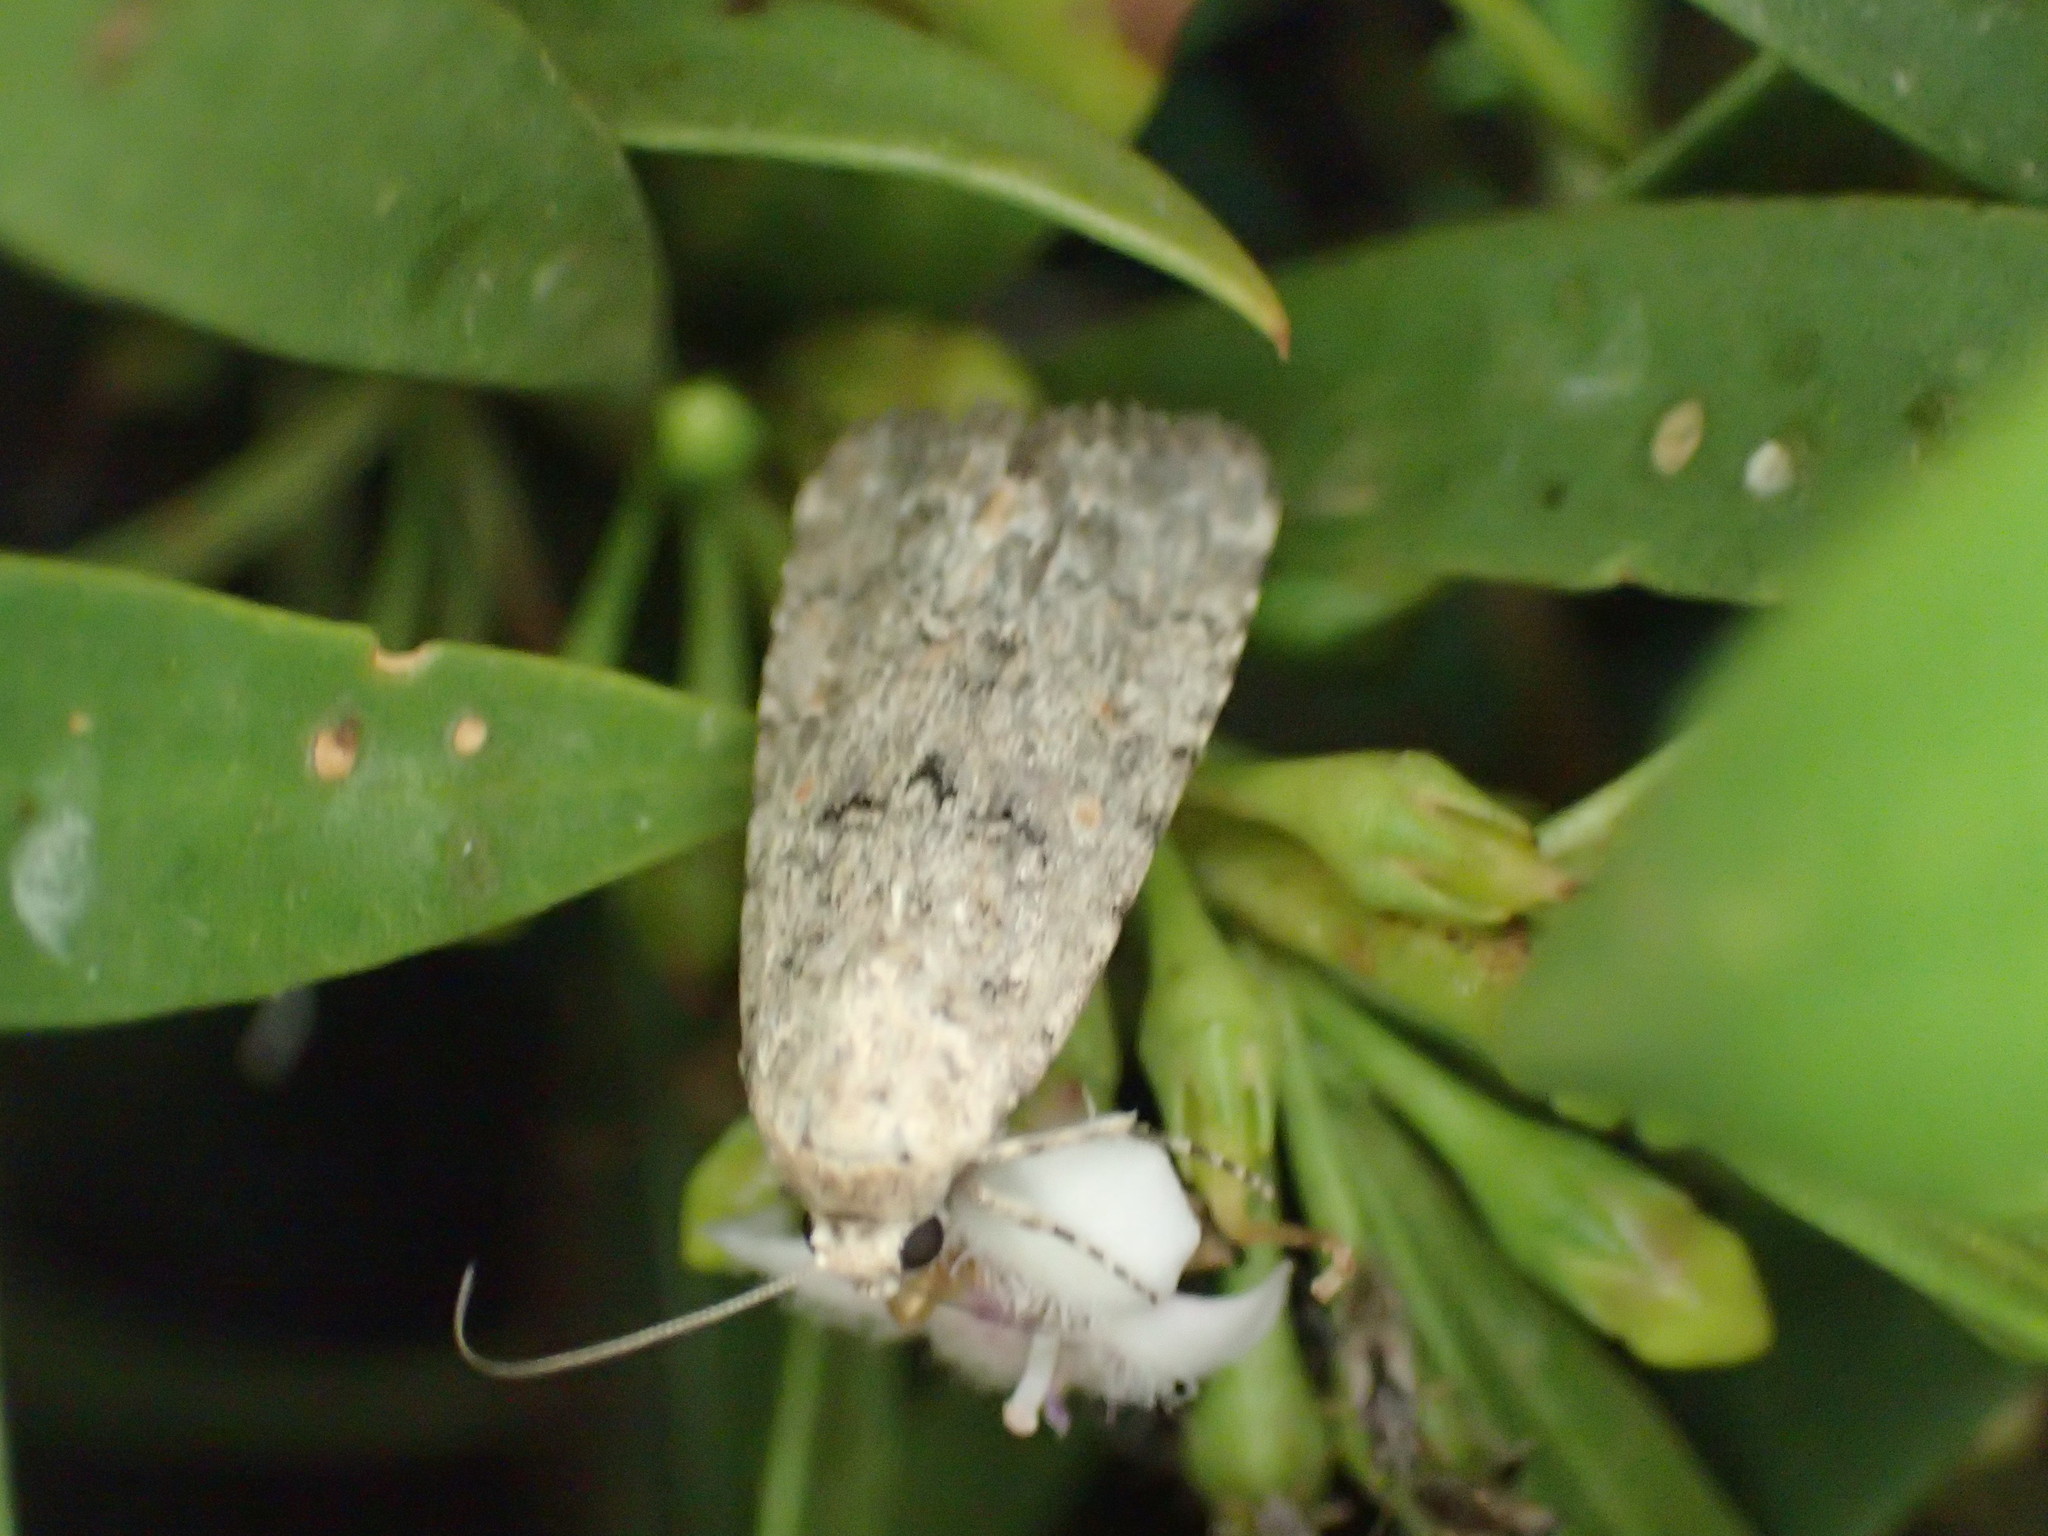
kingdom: Animalia
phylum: Arthropoda
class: Insecta
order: Lepidoptera
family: Noctuidae
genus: Spodoptera
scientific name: Spodoptera exigua
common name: Beet armyworm
